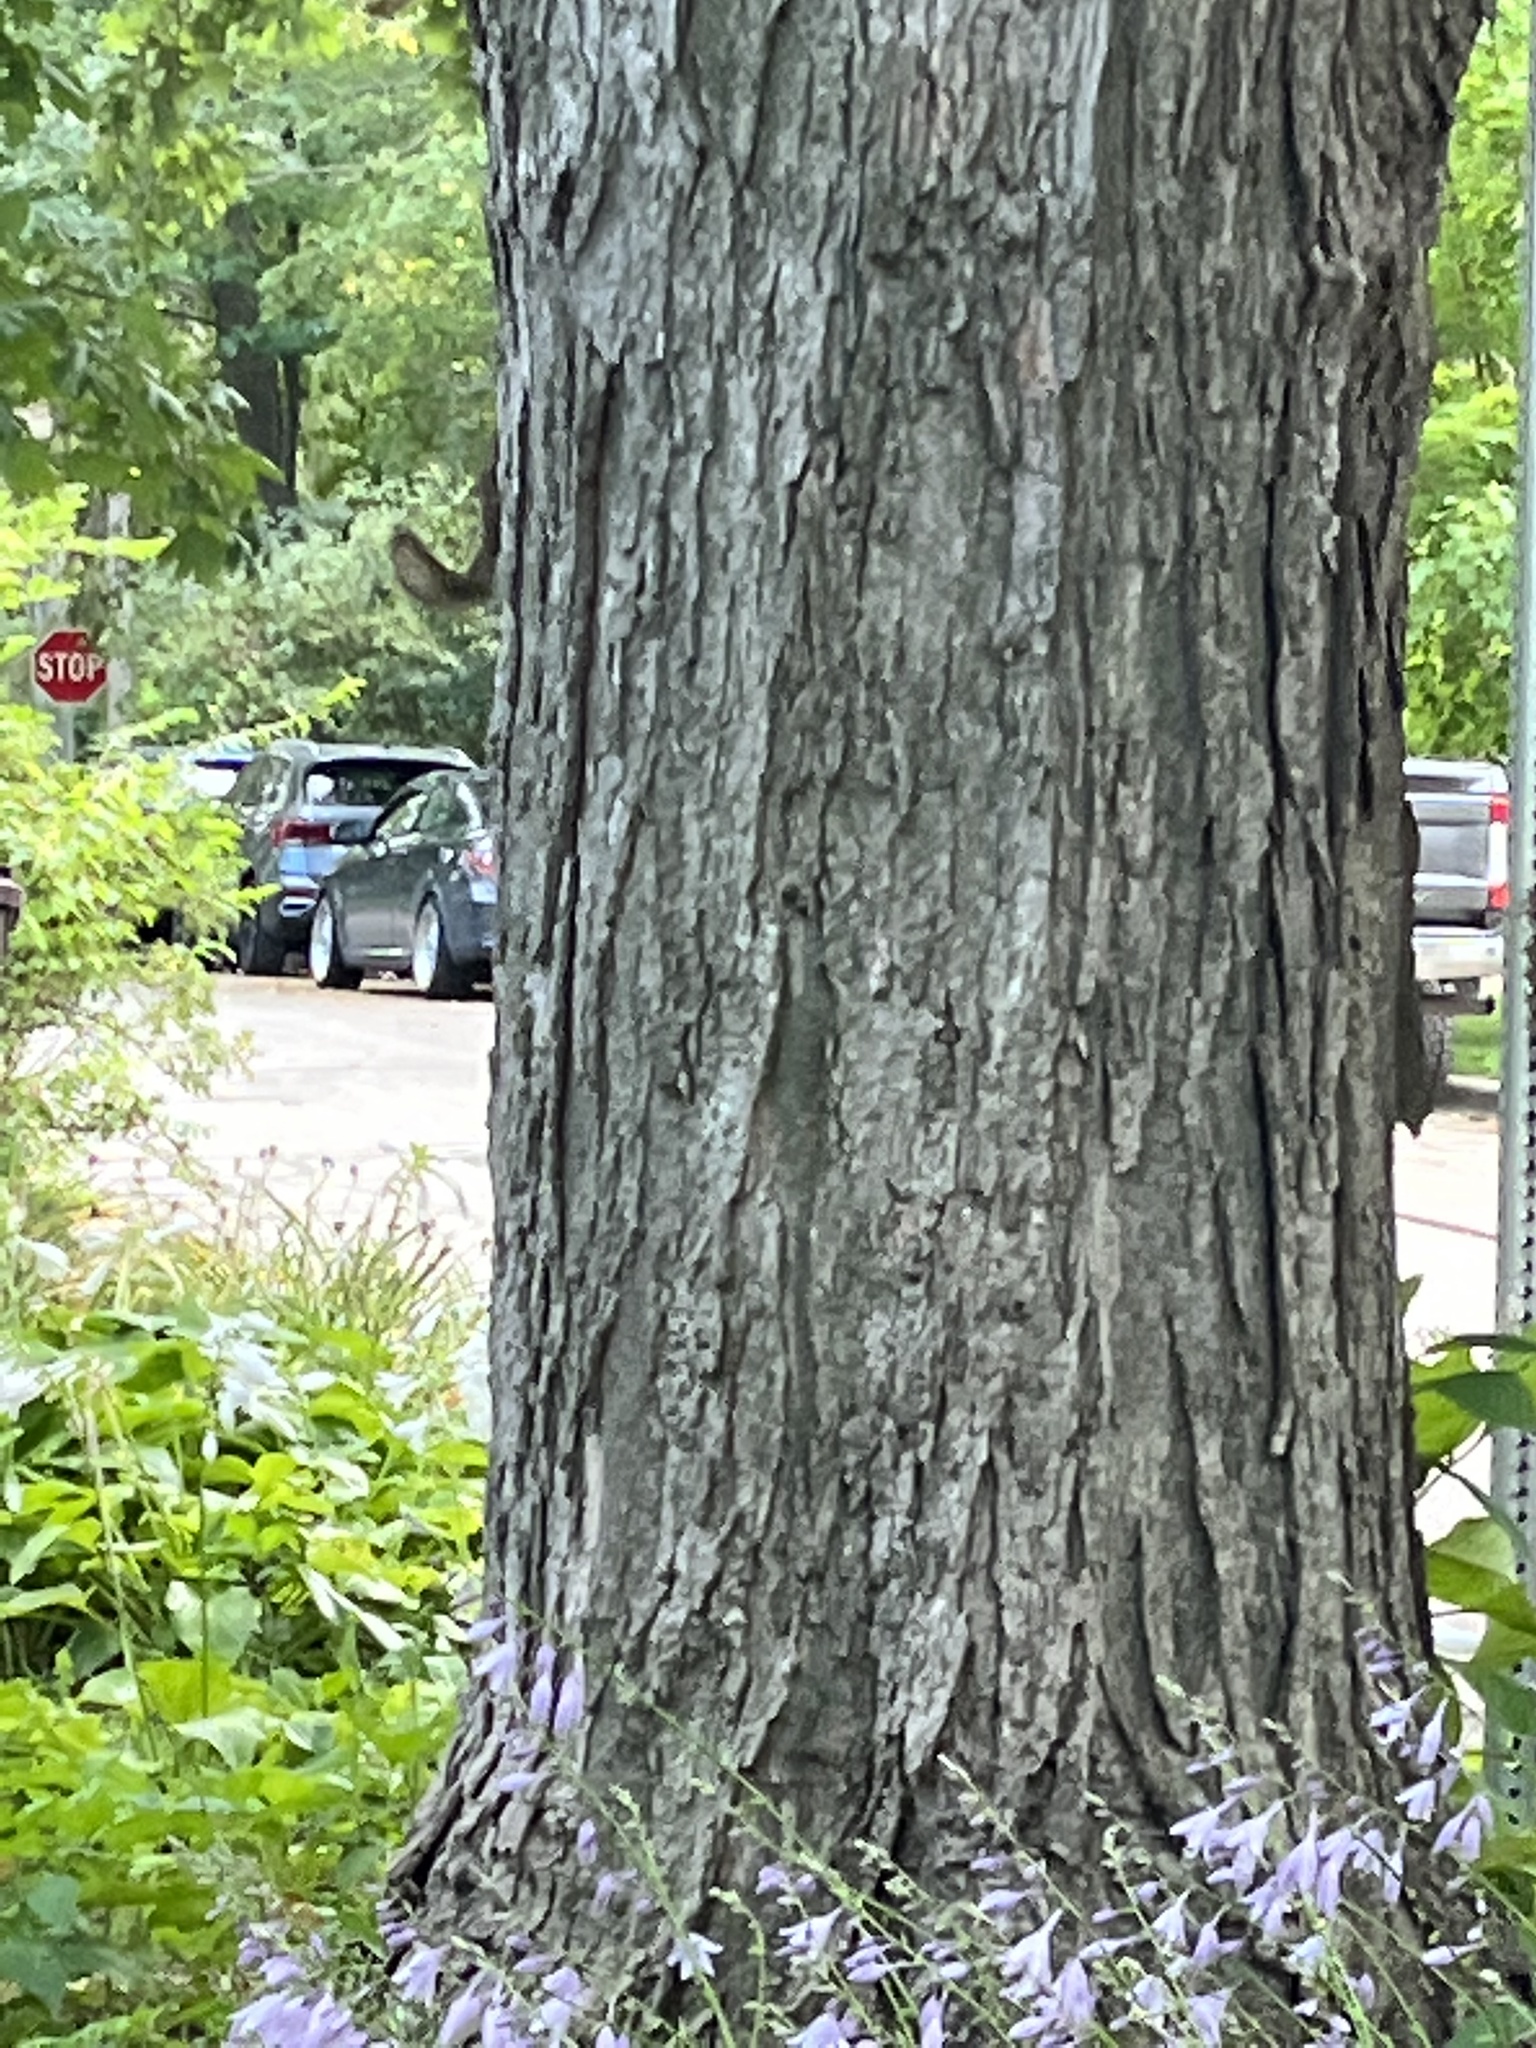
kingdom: Animalia
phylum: Chordata
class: Mammalia
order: Rodentia
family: Sciuridae
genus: Tamiasciurus
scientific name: Tamiasciurus hudsonicus
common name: Red squirrel
